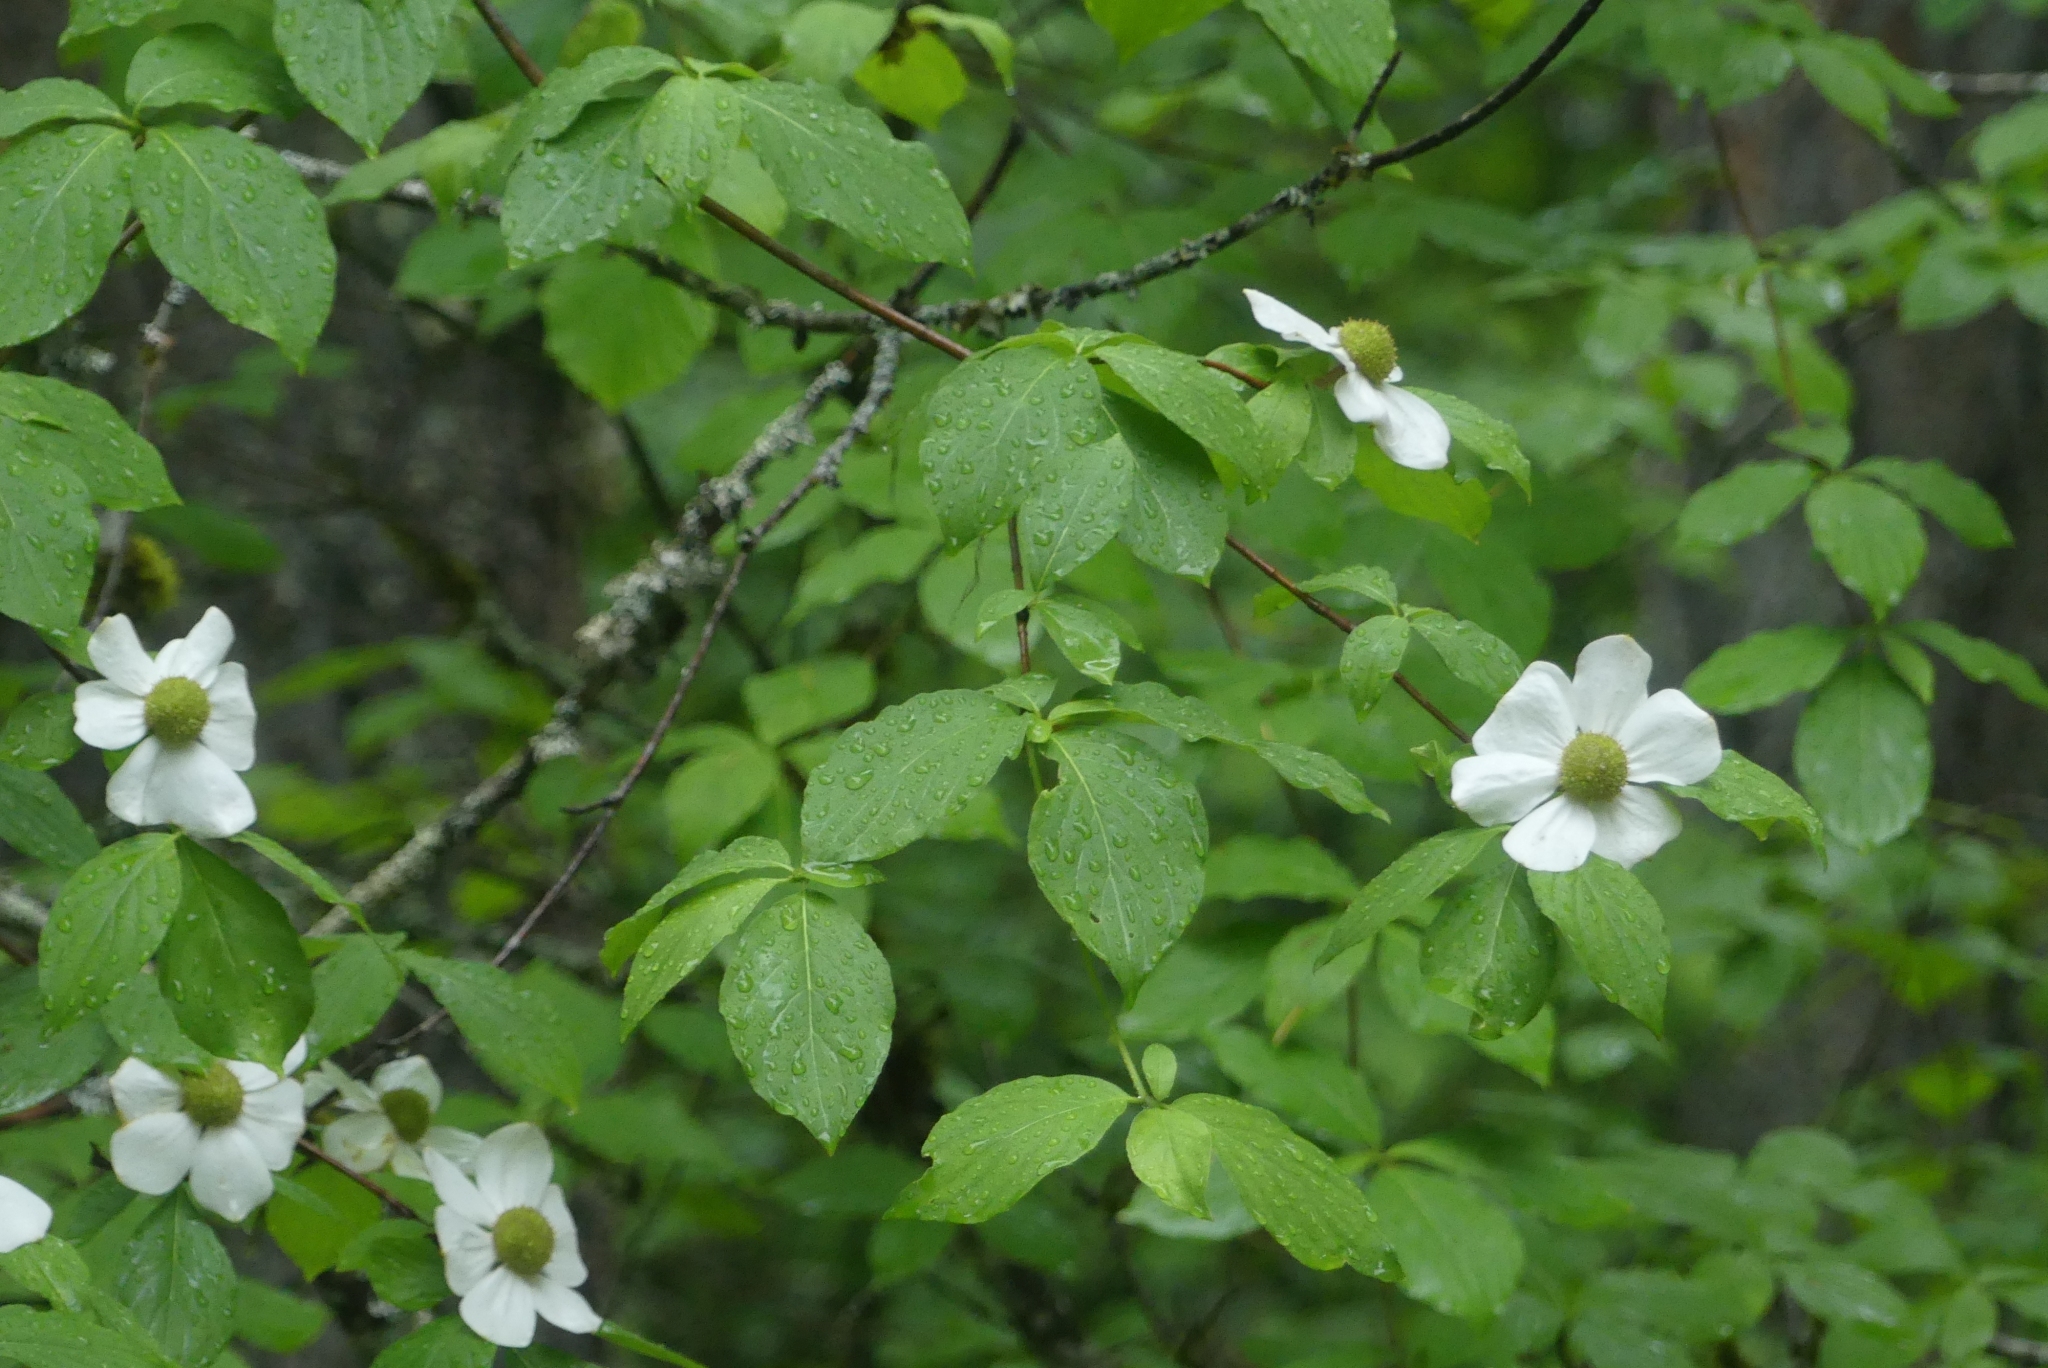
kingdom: Plantae
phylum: Tracheophyta
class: Magnoliopsida
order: Cornales
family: Cornaceae
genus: Cornus
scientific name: Cornus nuttallii
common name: Pacific dogwood
